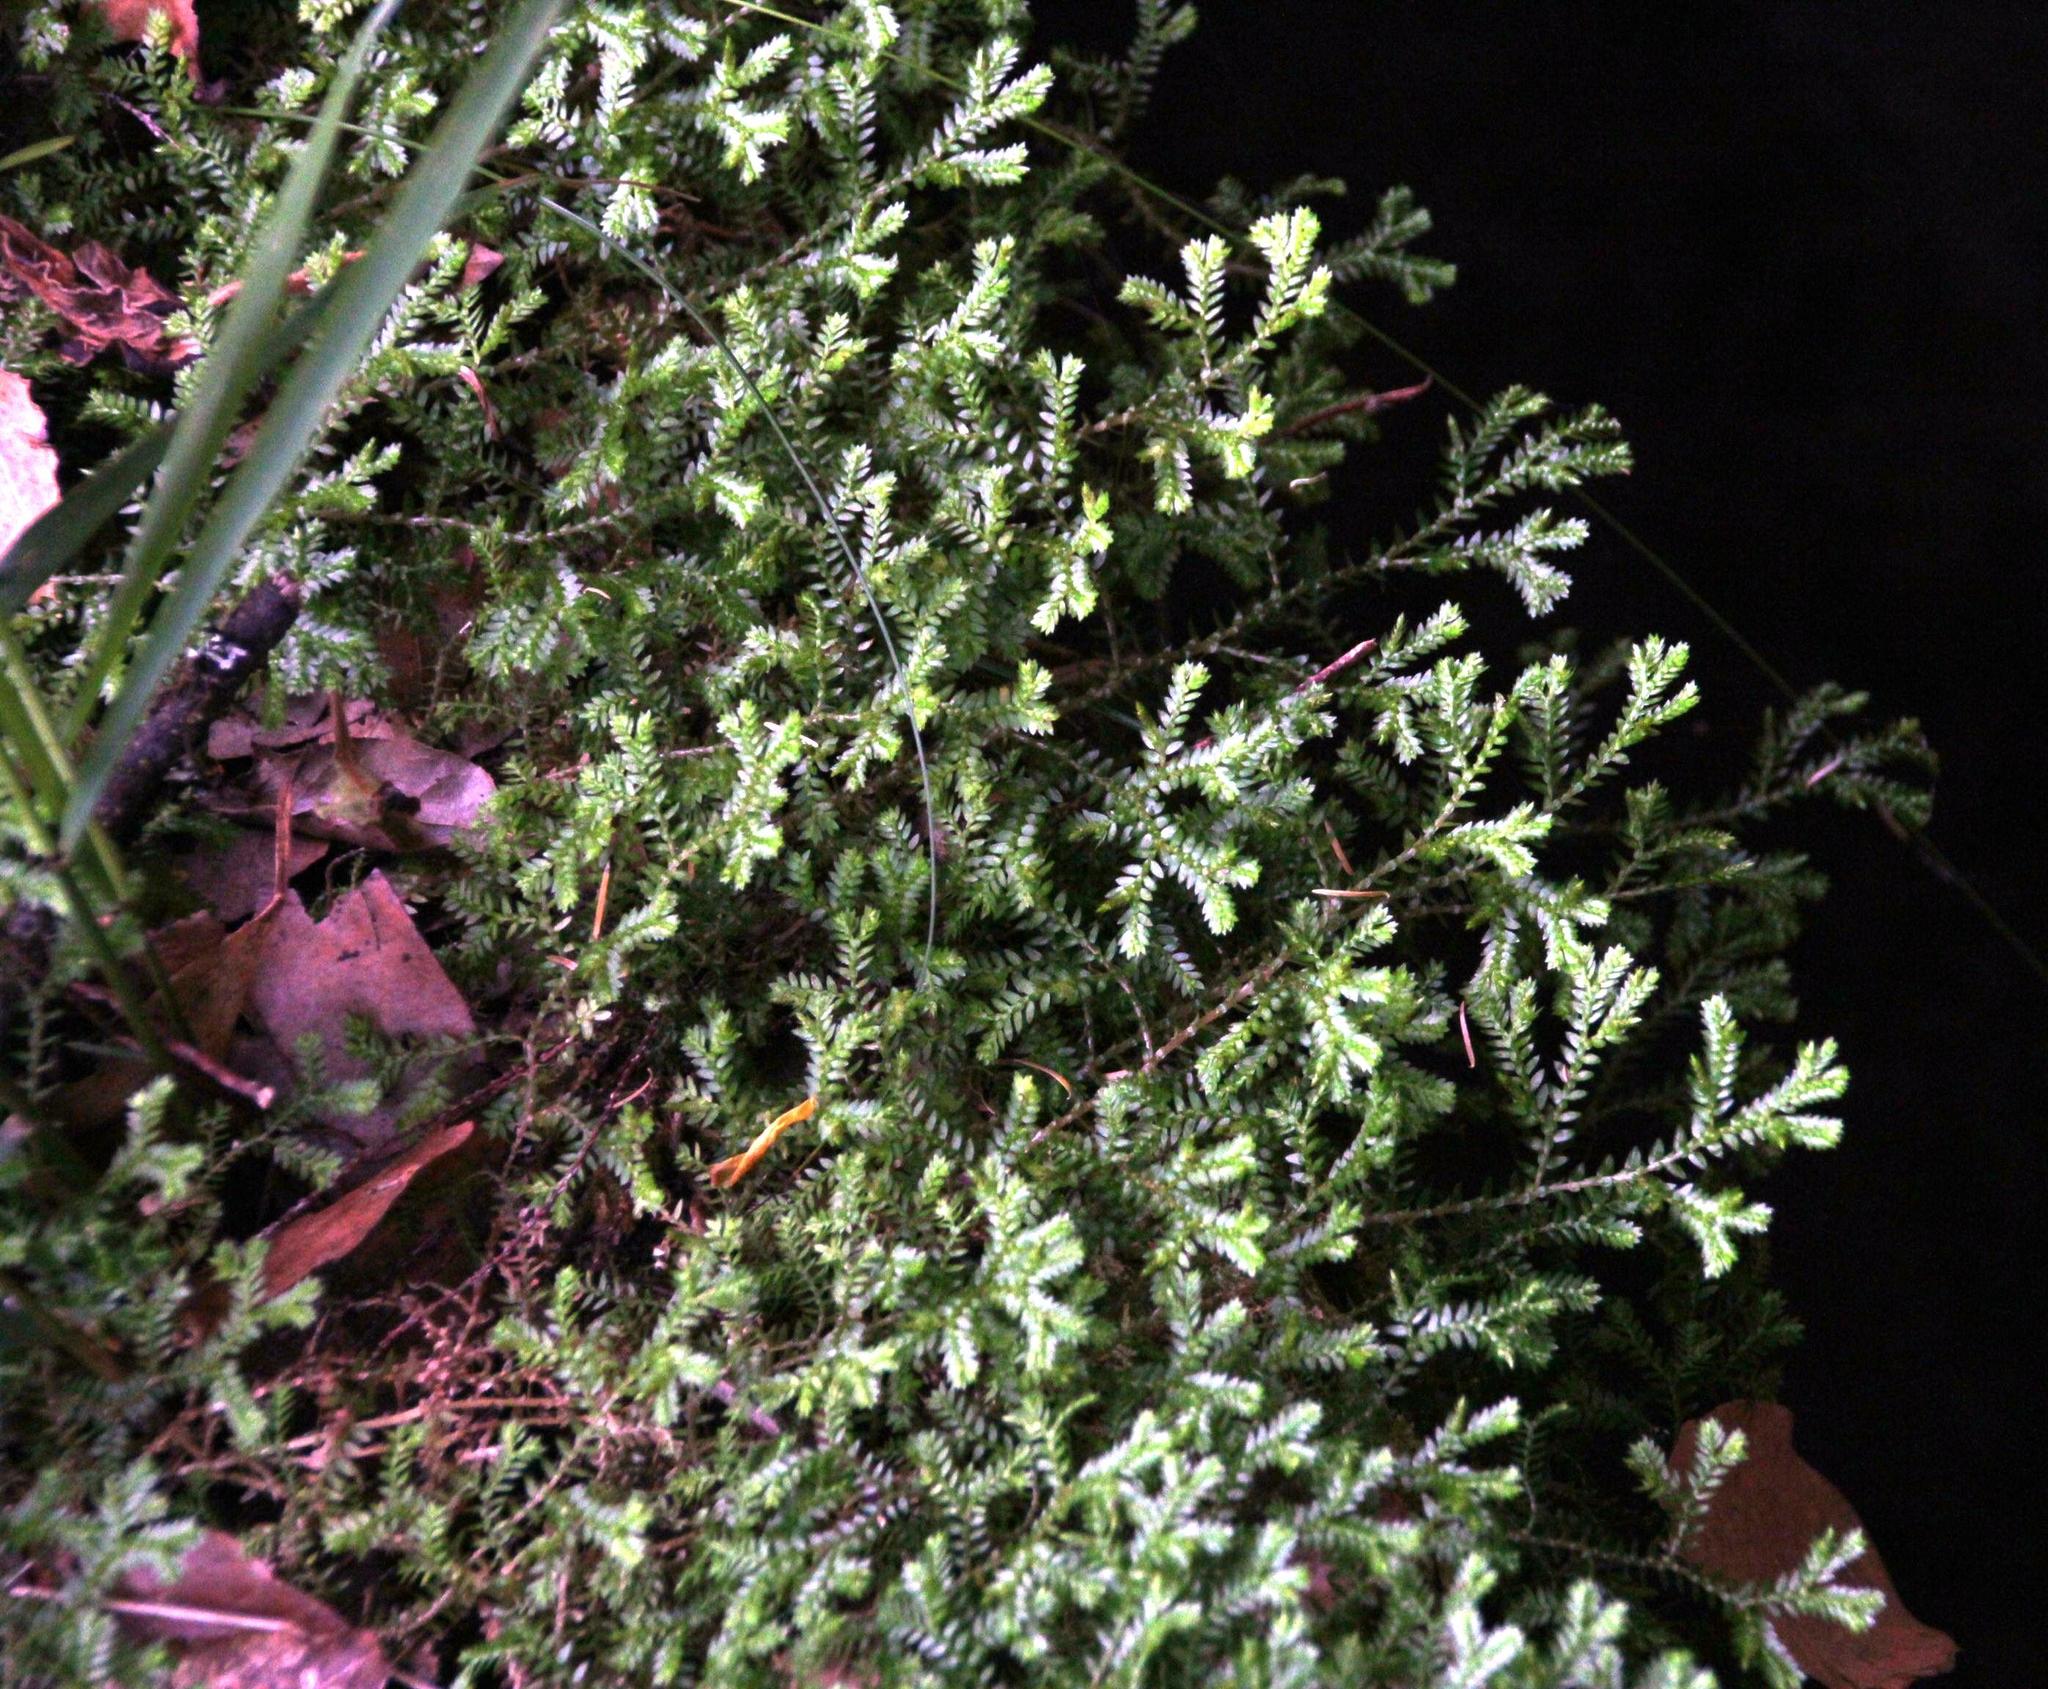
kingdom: Plantae
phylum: Tracheophyta
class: Lycopodiopsida
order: Selaginellales
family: Selaginellaceae
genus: Selaginella
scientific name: Selaginella kraussiana
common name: Krauss' spikemoss
